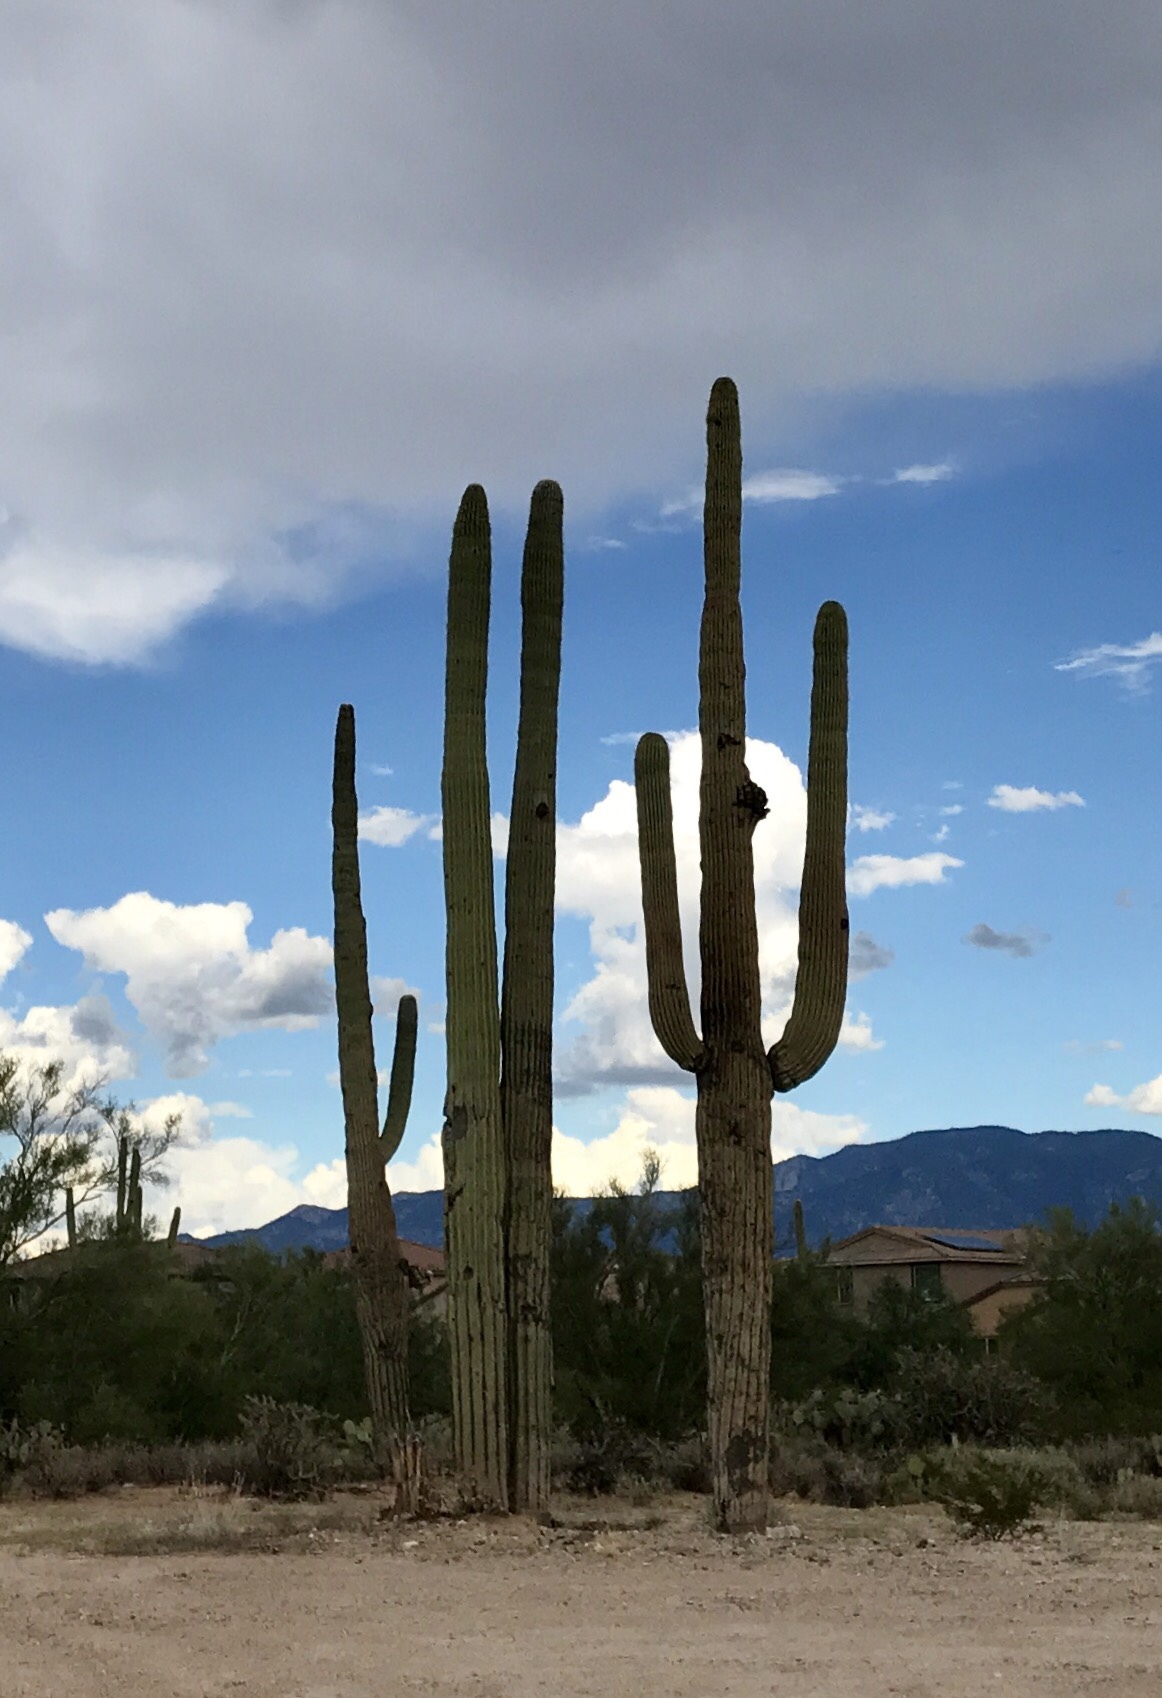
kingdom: Plantae
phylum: Tracheophyta
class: Magnoliopsida
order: Caryophyllales
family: Cactaceae
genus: Carnegiea
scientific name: Carnegiea gigantea
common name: Saguaro
